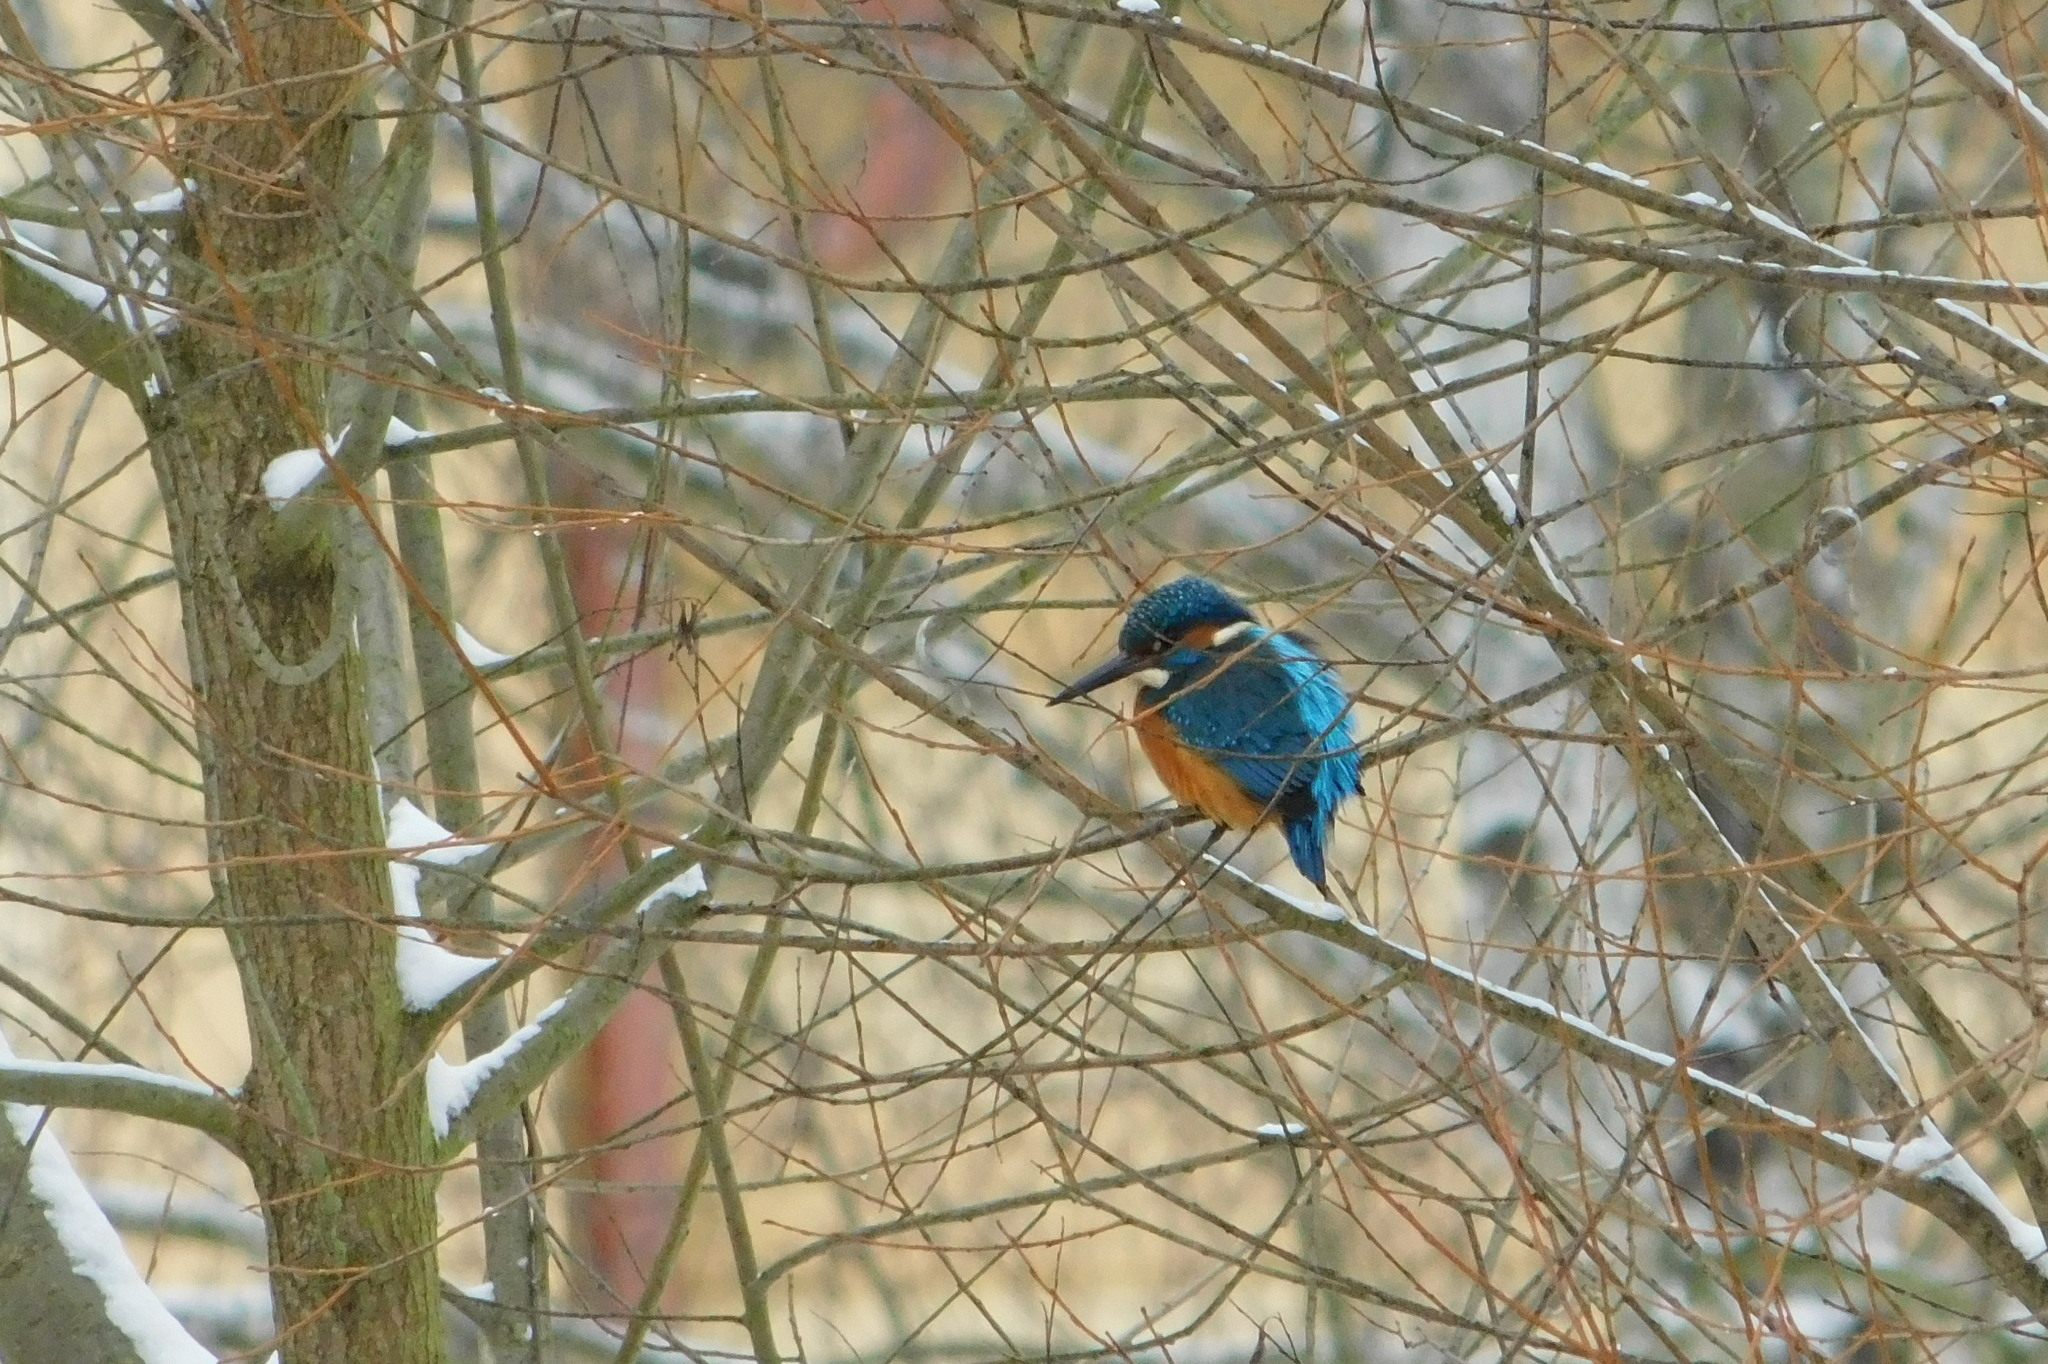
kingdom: Animalia
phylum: Chordata
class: Aves
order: Coraciiformes
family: Alcedinidae
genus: Alcedo
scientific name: Alcedo atthis
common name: Common kingfisher
